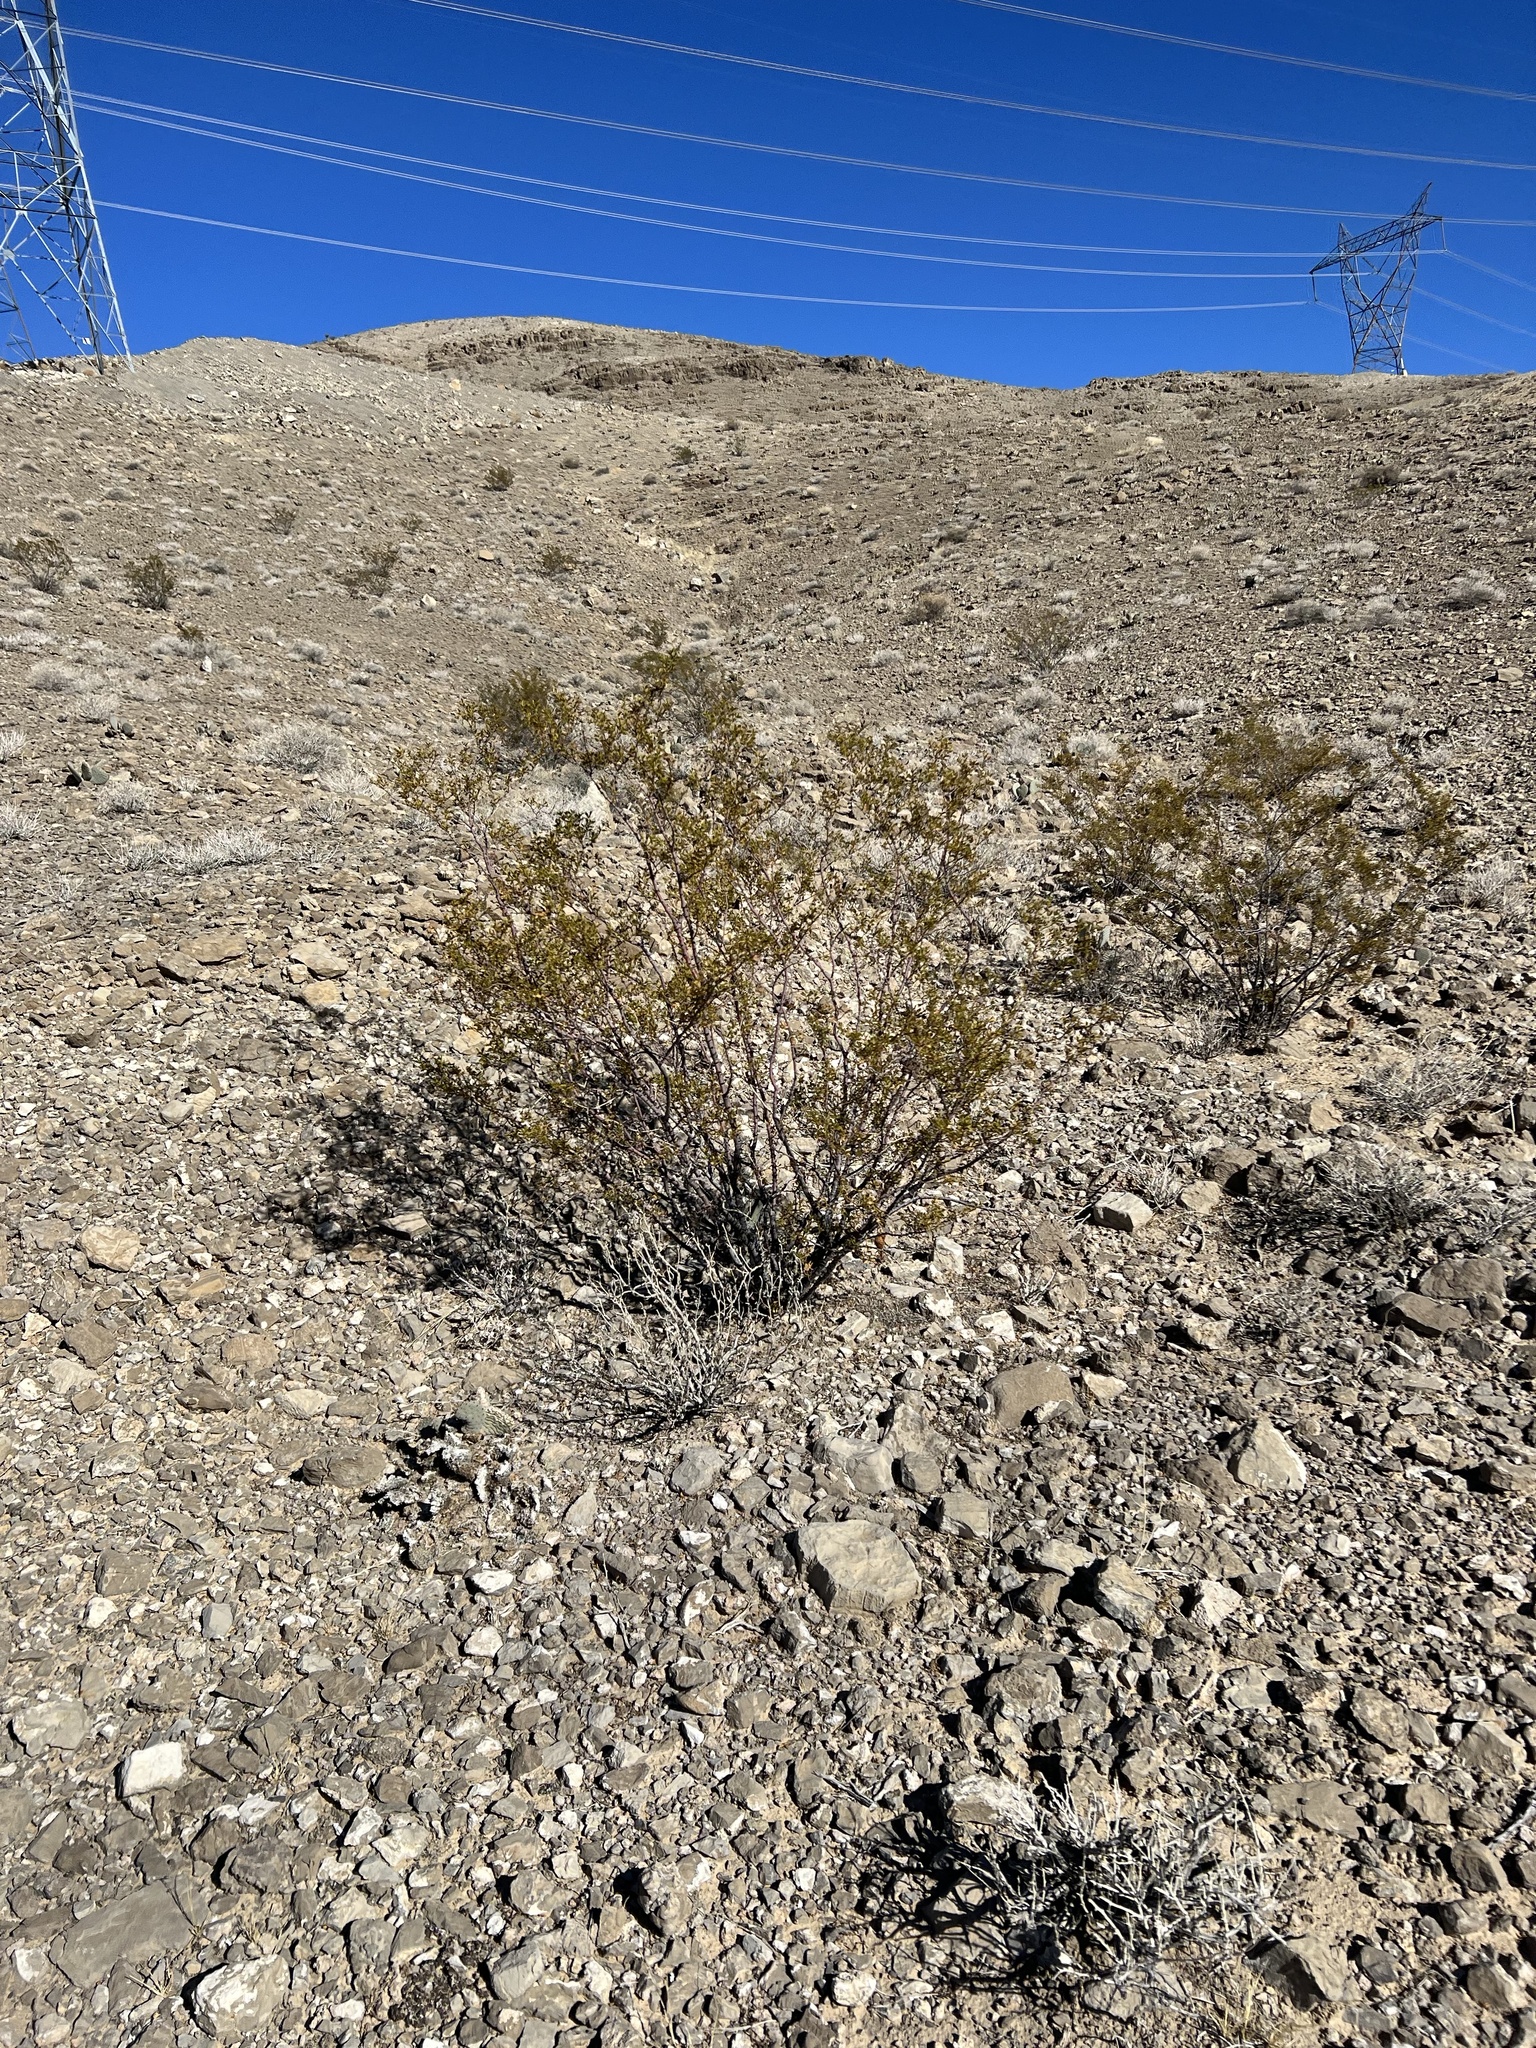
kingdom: Plantae
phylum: Tracheophyta
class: Magnoliopsida
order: Zygophyllales
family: Zygophyllaceae
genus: Larrea
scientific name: Larrea tridentata
